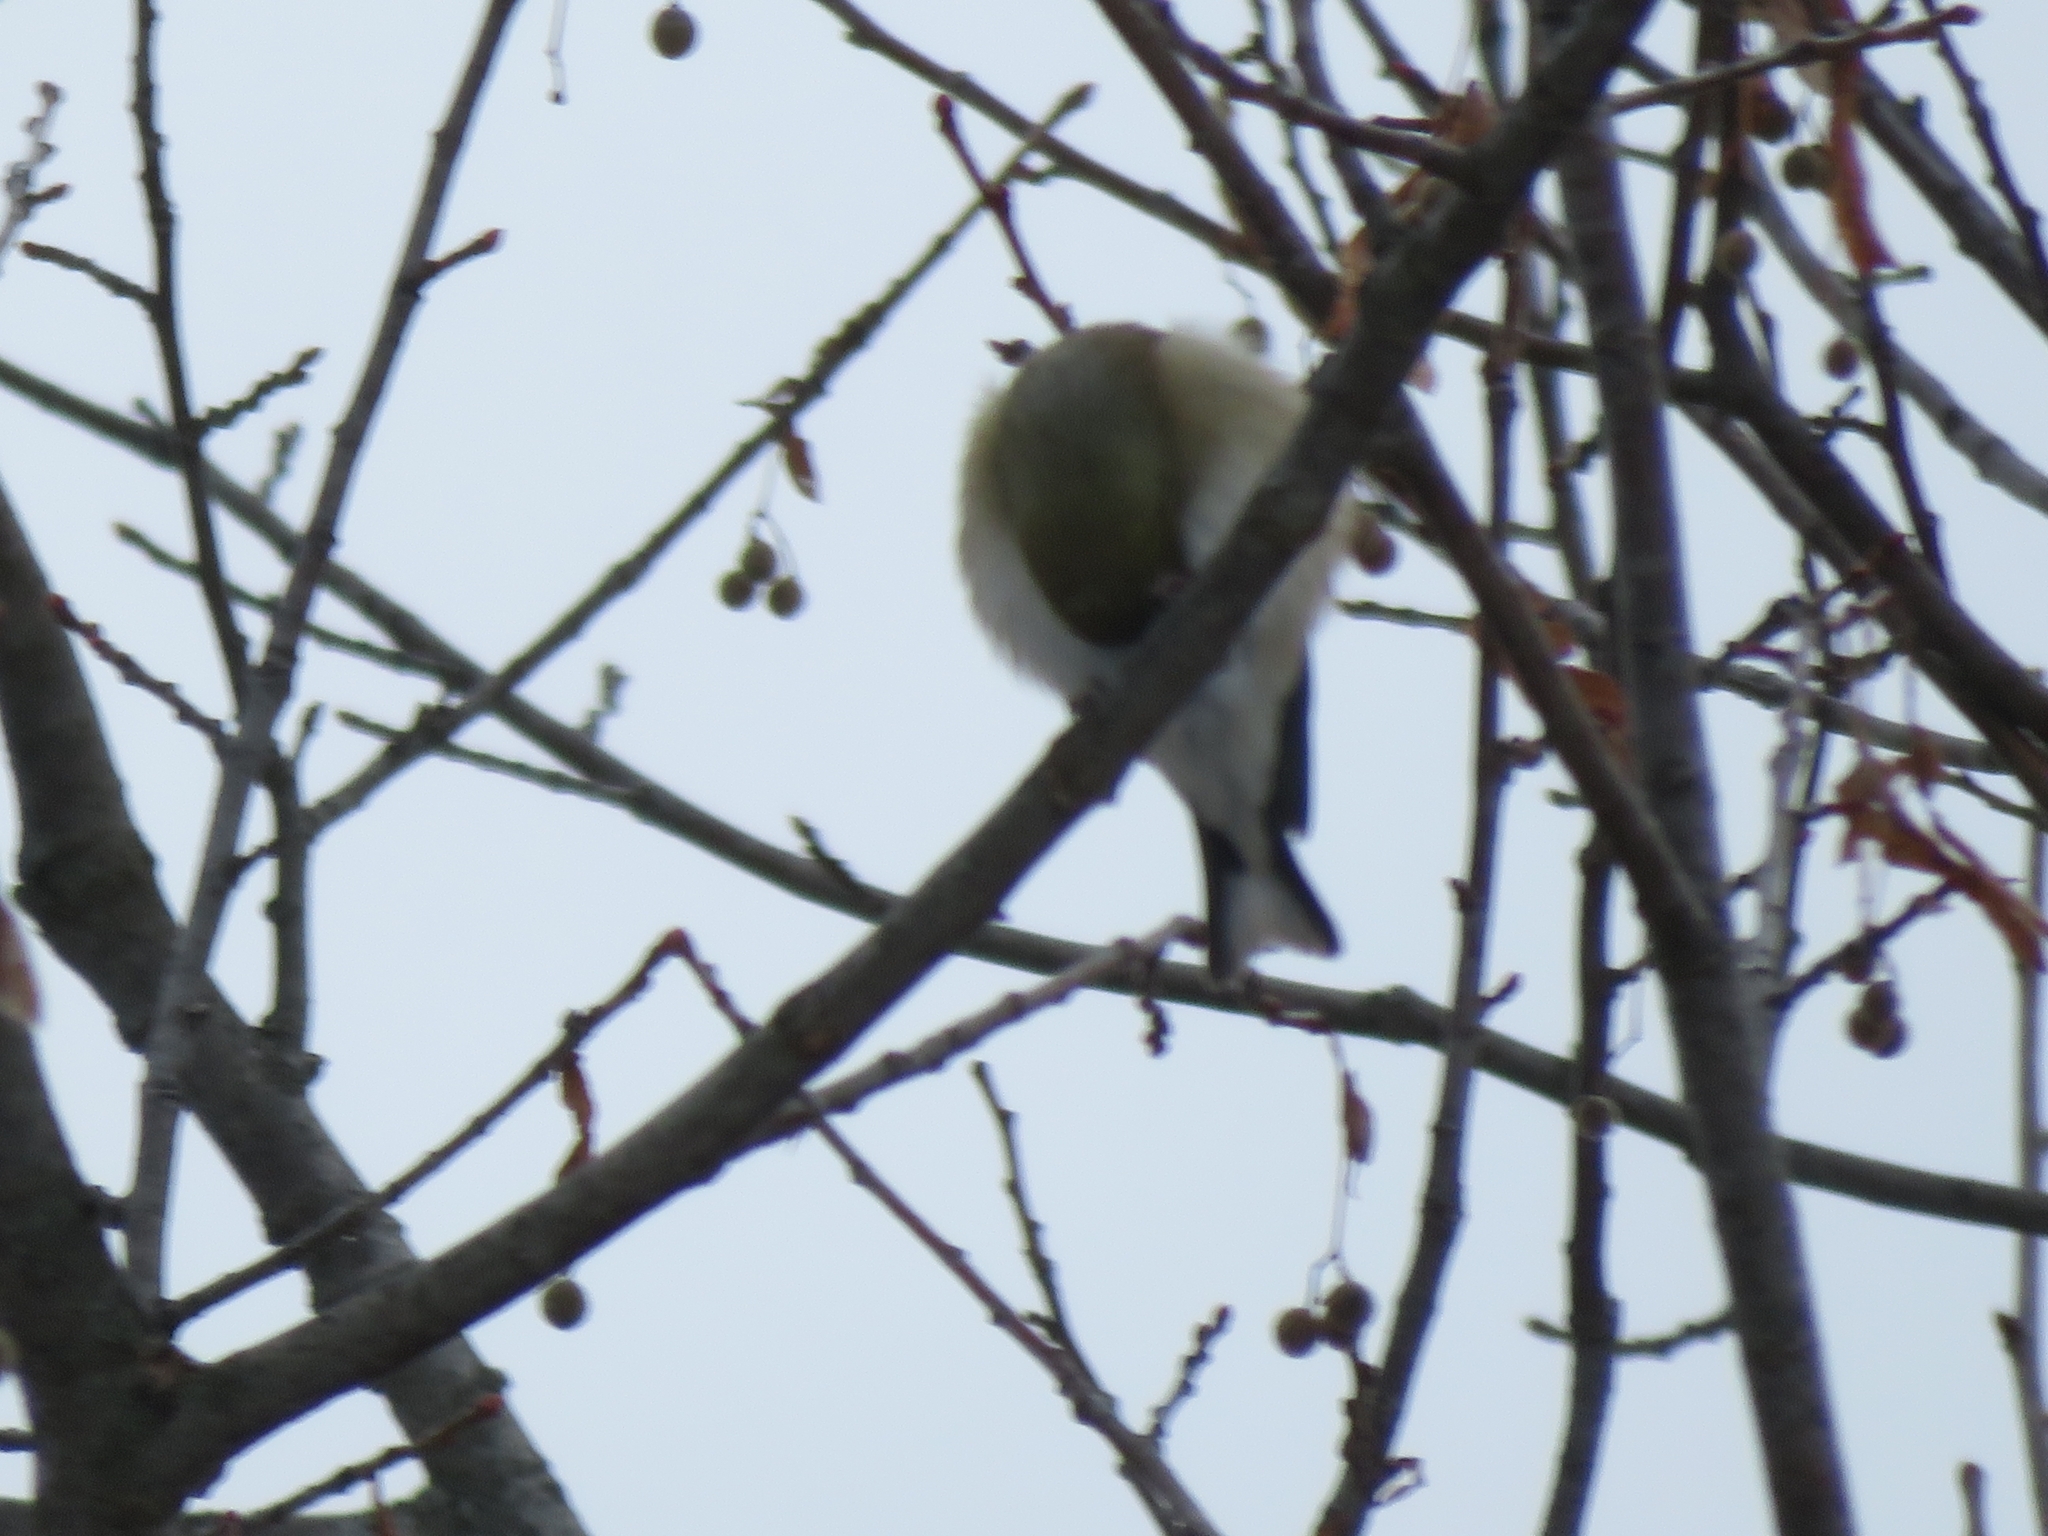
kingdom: Animalia
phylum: Chordata
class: Aves
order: Passeriformes
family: Fringillidae
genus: Spinus
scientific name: Spinus tristis
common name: American goldfinch
